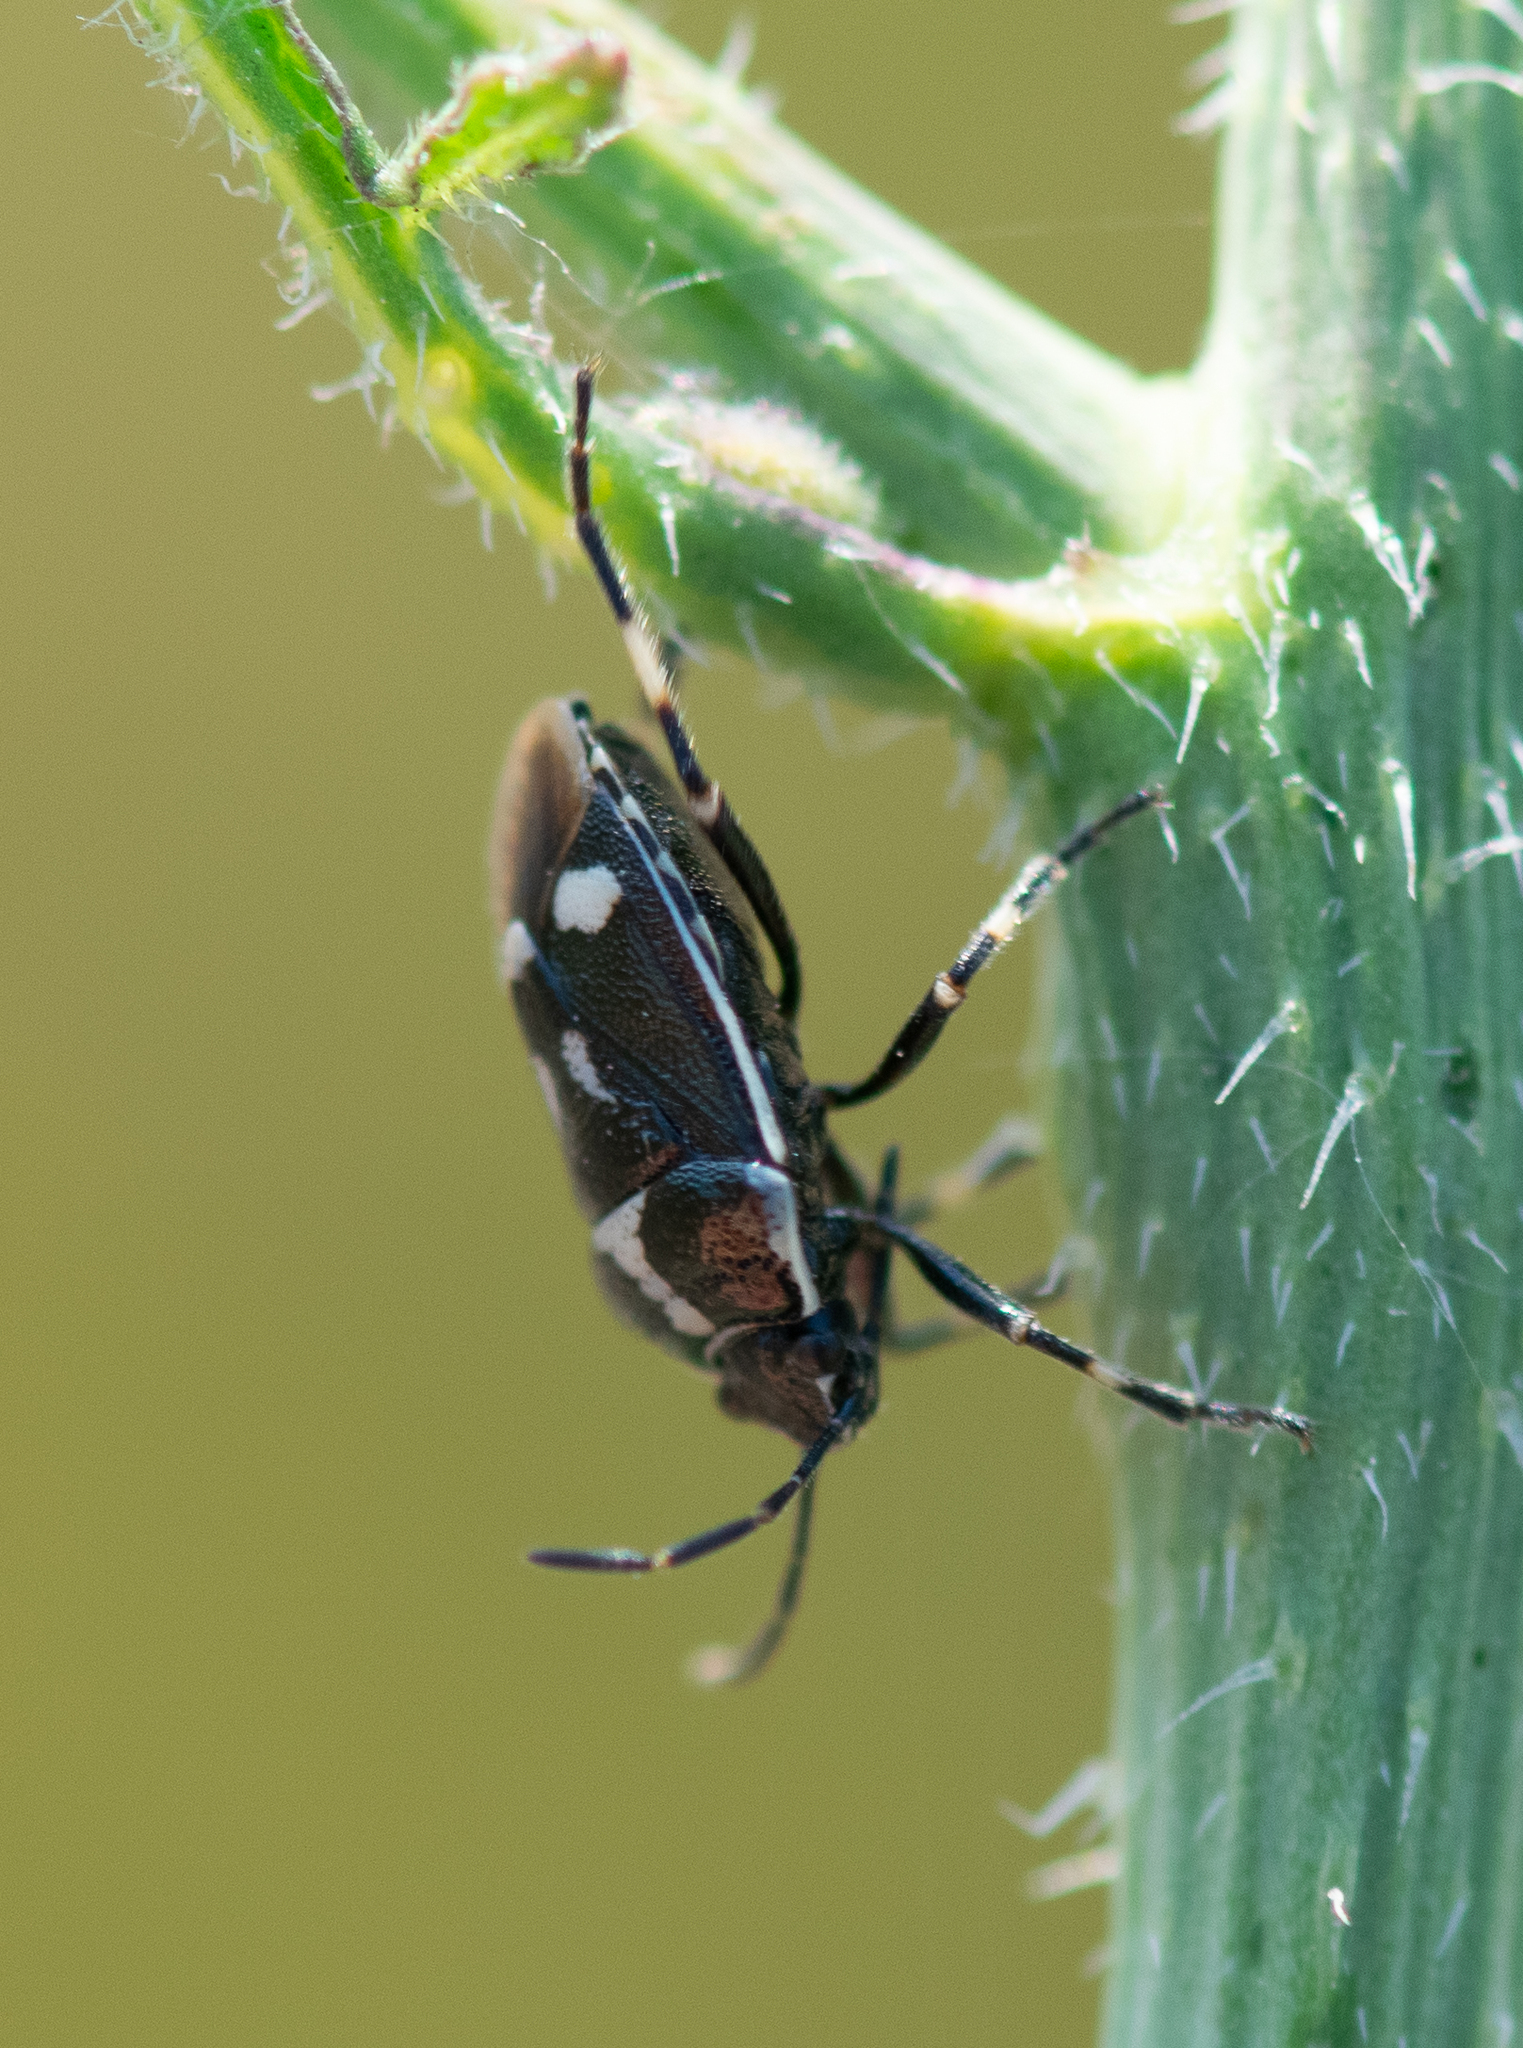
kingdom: Animalia
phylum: Arthropoda
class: Insecta
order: Hemiptera
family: Pentatomidae
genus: Eurydema
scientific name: Eurydema oleracea
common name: Cabbage bug
